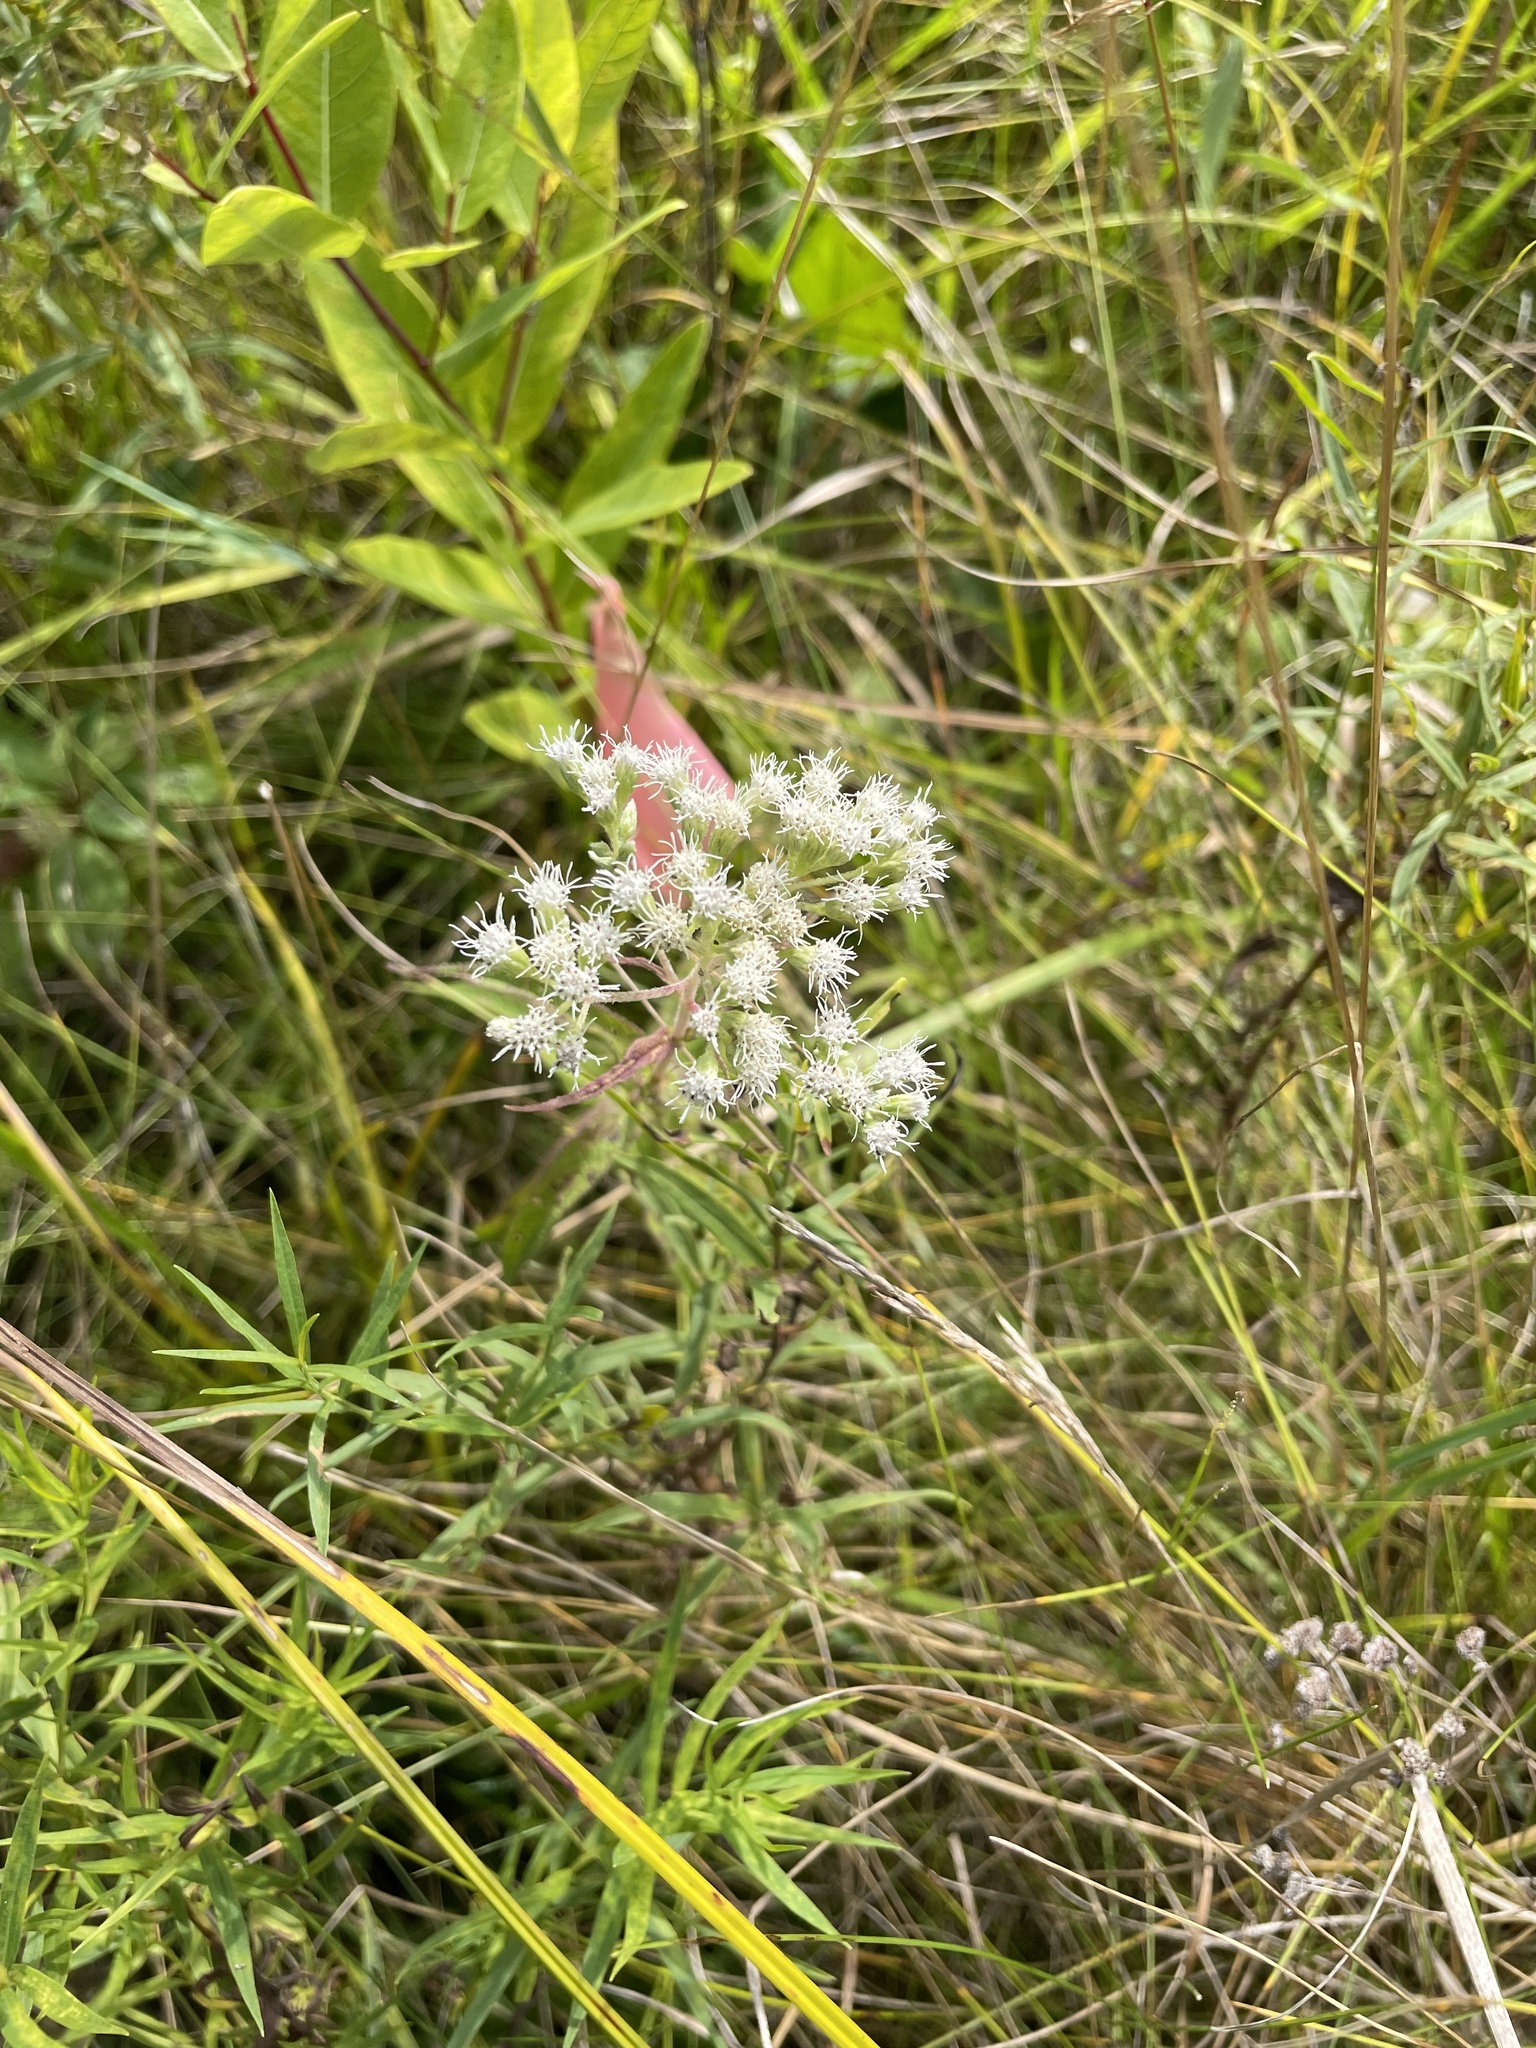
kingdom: Plantae
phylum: Tracheophyta
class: Magnoliopsida
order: Asterales
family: Asteraceae
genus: Eupatorium
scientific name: Eupatorium perfoliatum
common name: Boneset
